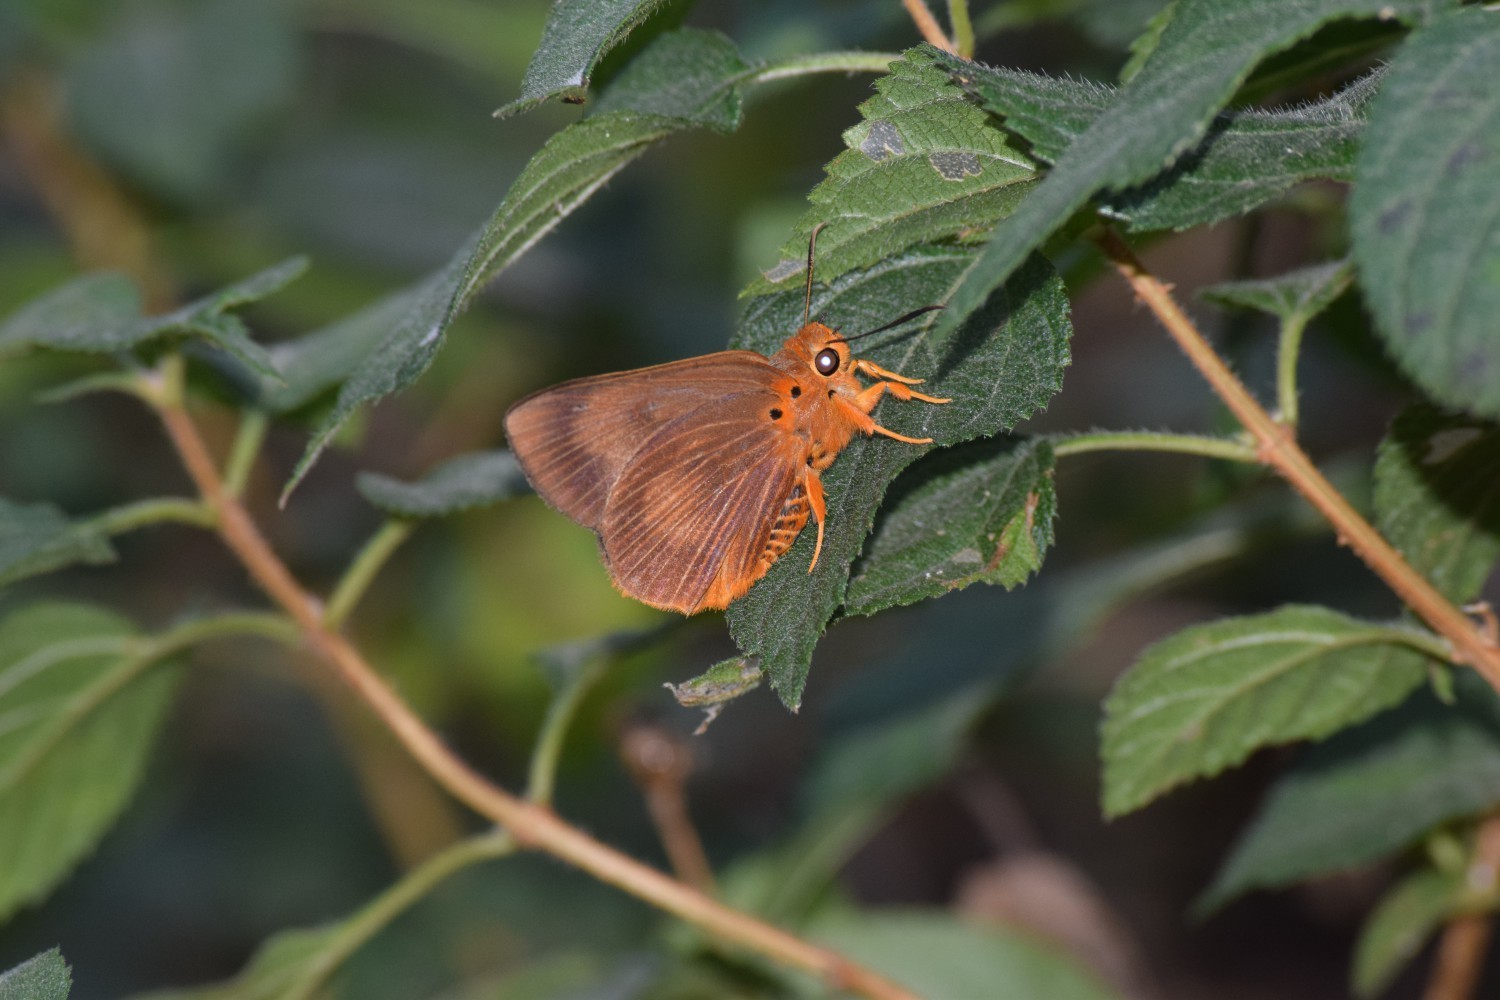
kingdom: Animalia
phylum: Arthropoda
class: Insecta
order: Lepidoptera
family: Hesperiidae
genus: Bibasis
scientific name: Bibasis harisa
